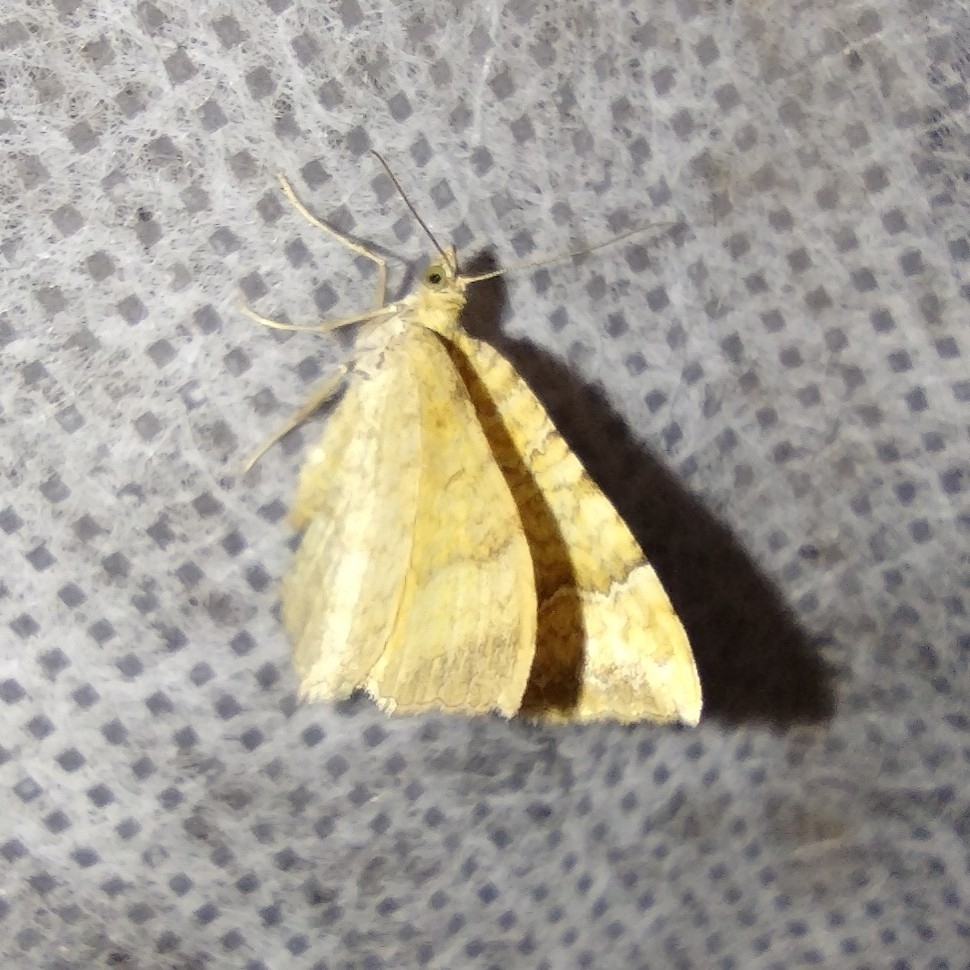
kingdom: Animalia
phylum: Arthropoda
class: Insecta
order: Lepidoptera
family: Geometridae
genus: Camptogramma
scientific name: Camptogramma bilineata
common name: Yellow shell
